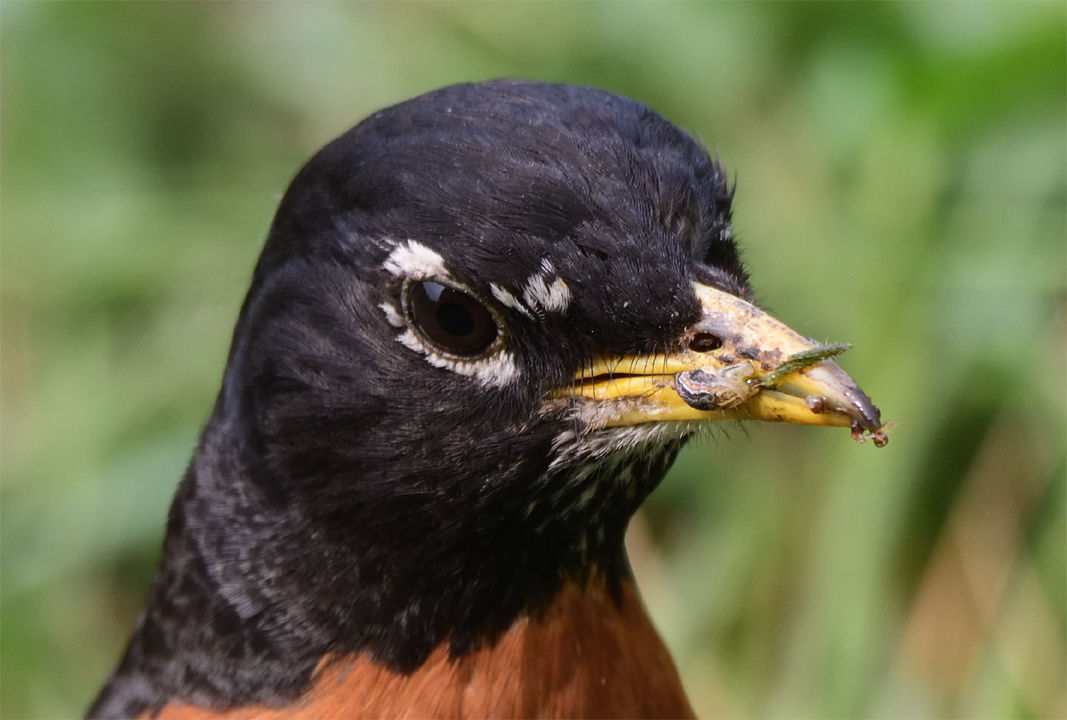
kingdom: Animalia
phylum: Chordata
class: Aves
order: Passeriformes
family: Turdidae
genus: Turdus
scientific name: Turdus migratorius
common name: American robin
